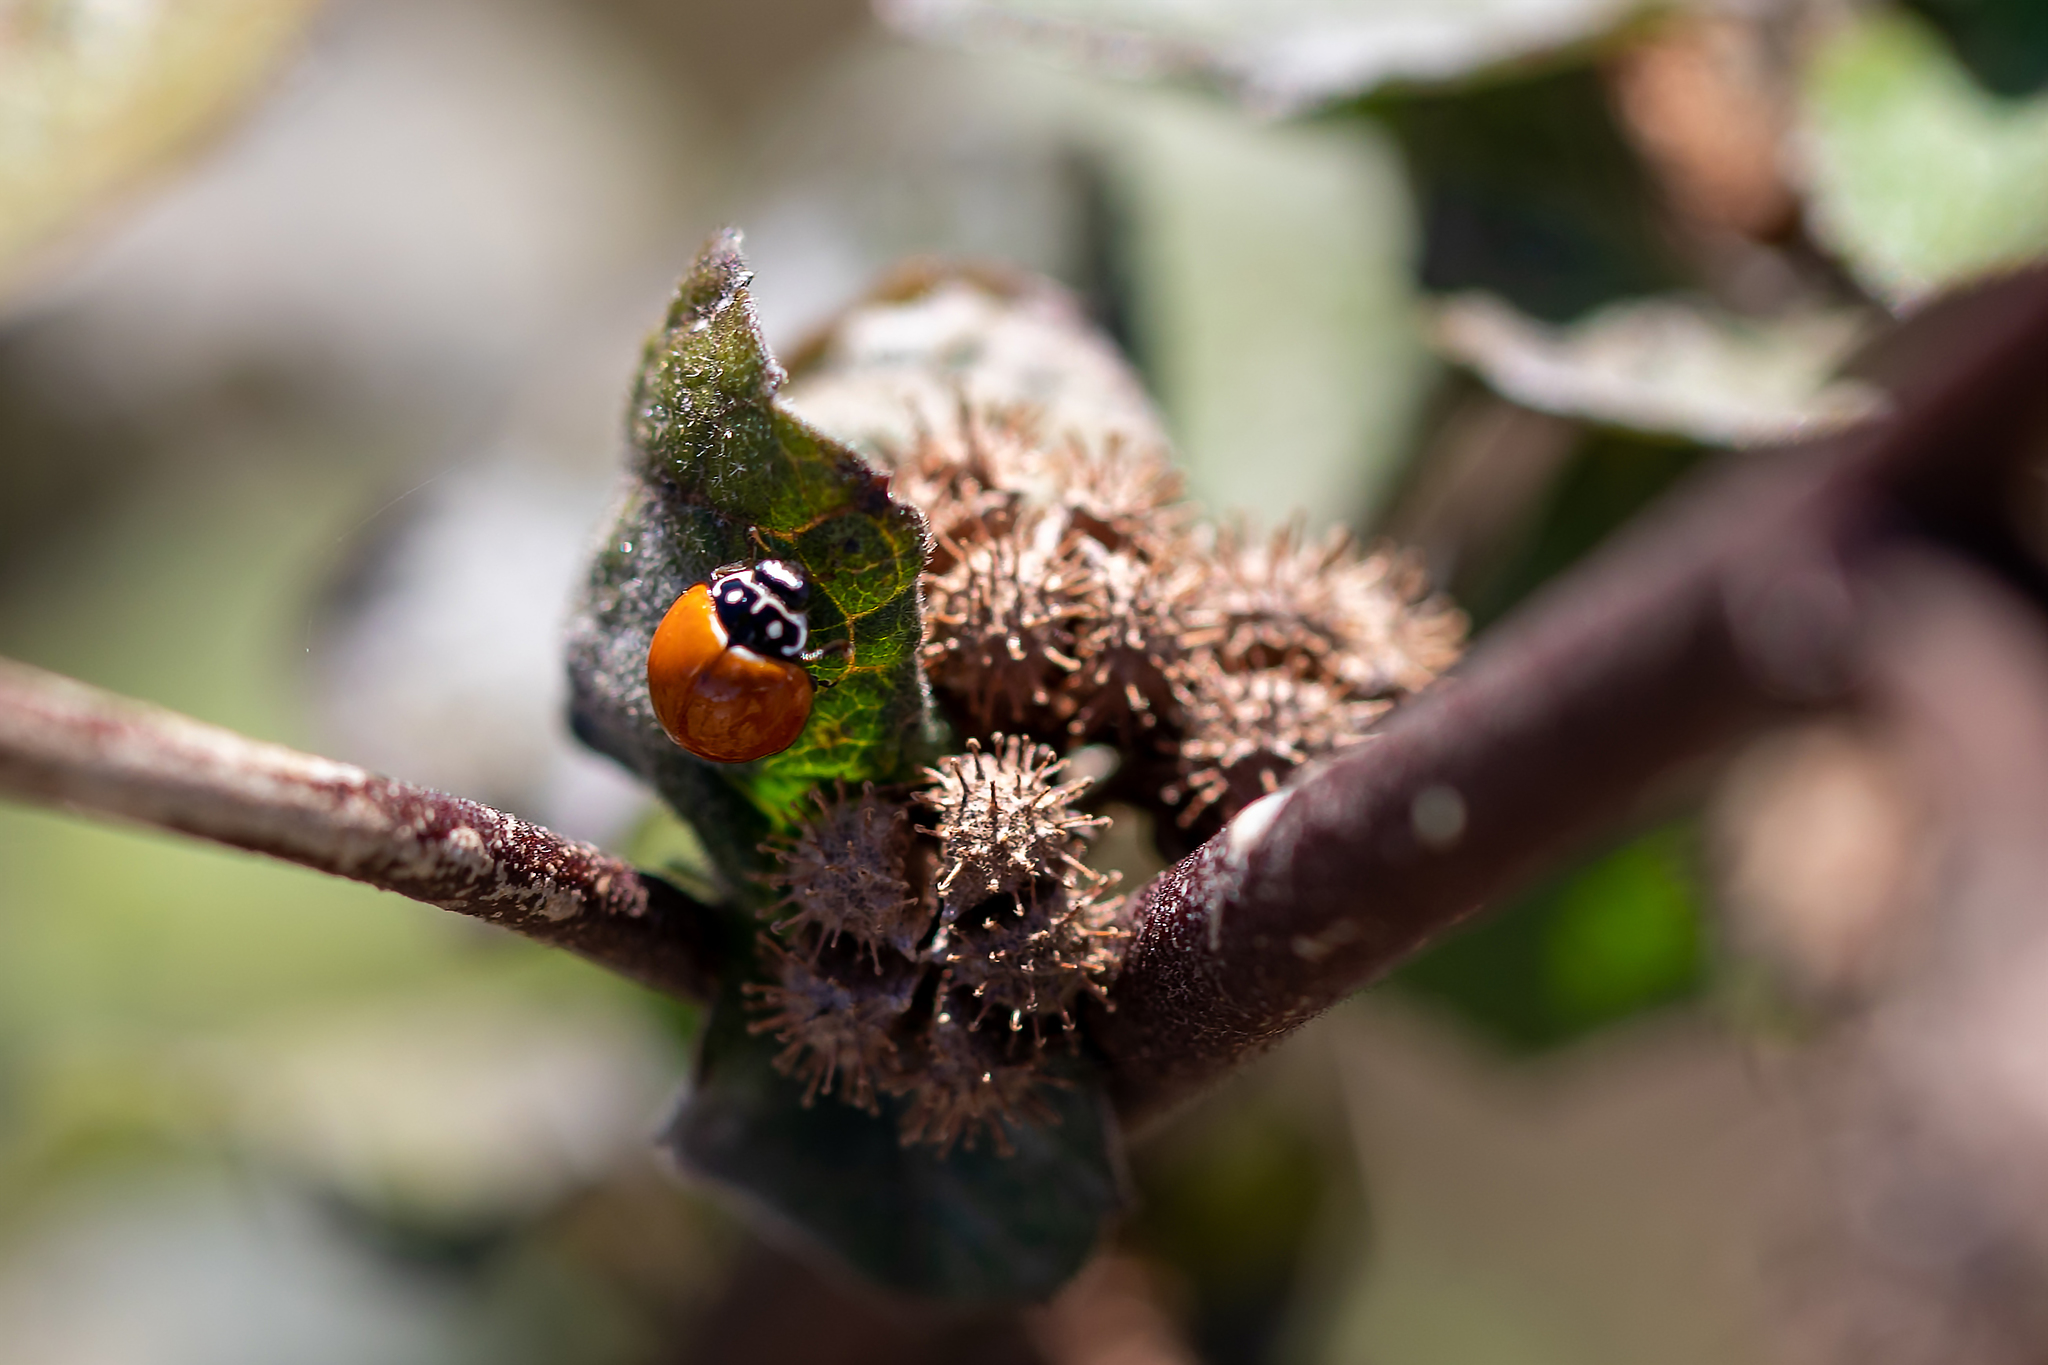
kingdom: Animalia
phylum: Arthropoda
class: Insecta
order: Coleoptera
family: Coccinellidae
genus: Cycloneda
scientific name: Cycloneda sanguinea
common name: Ladybird beetle
